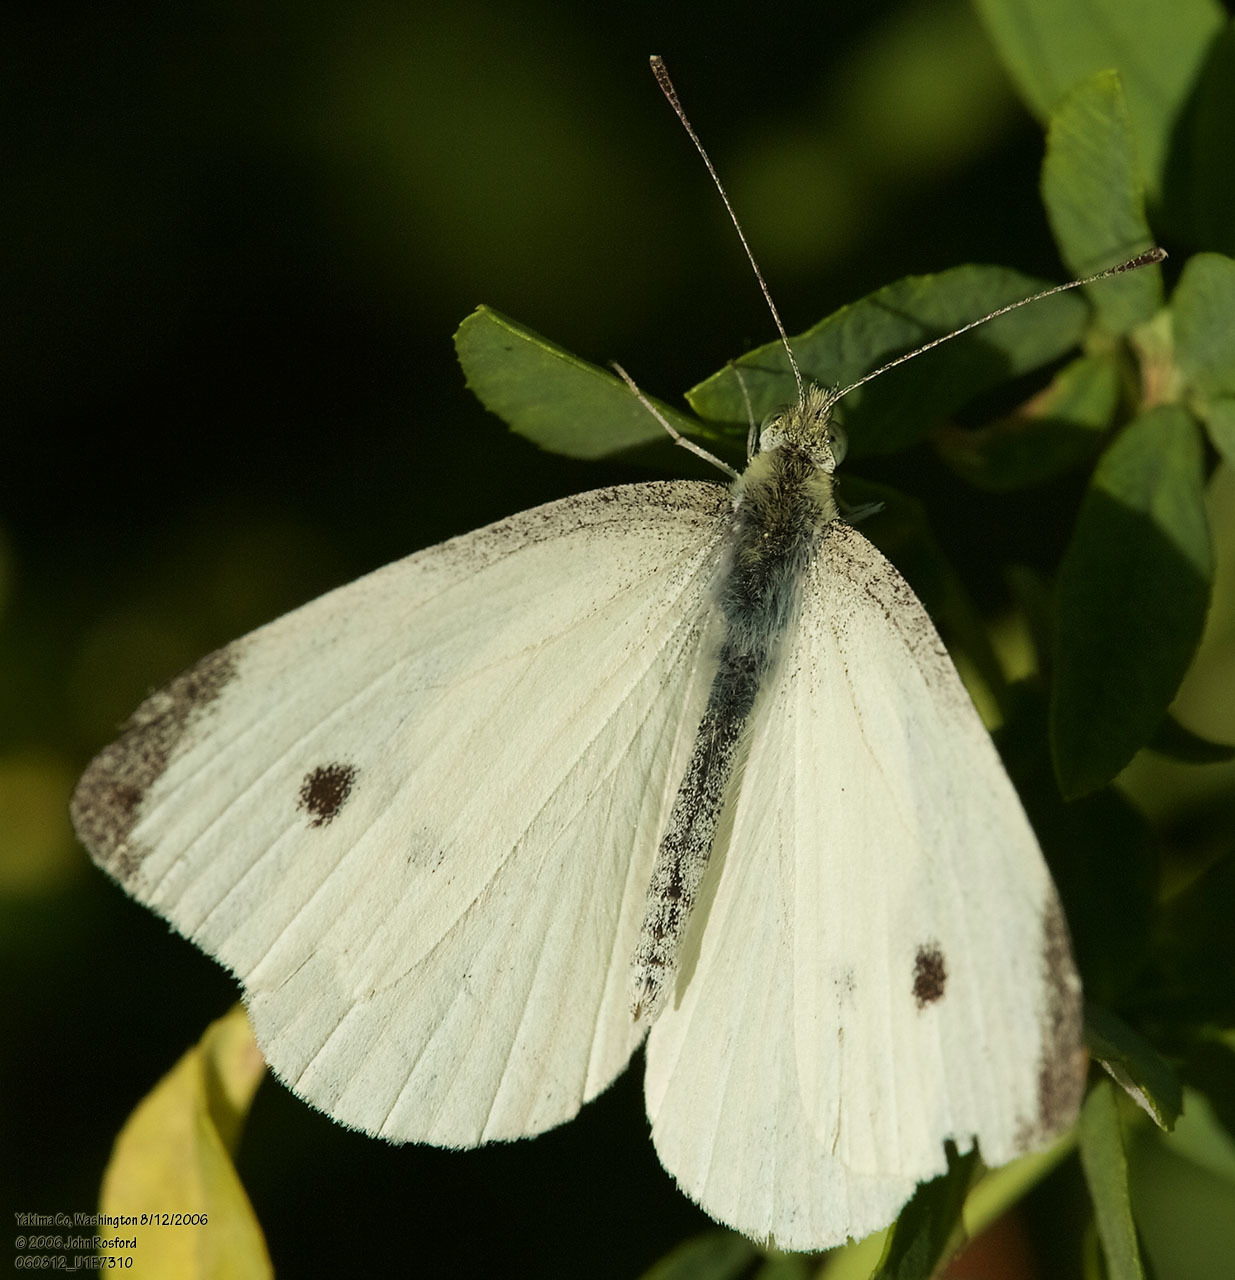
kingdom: Animalia
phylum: Arthropoda
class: Insecta
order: Lepidoptera
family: Pieridae
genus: Pieris
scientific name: Pieris rapae
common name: Small white
